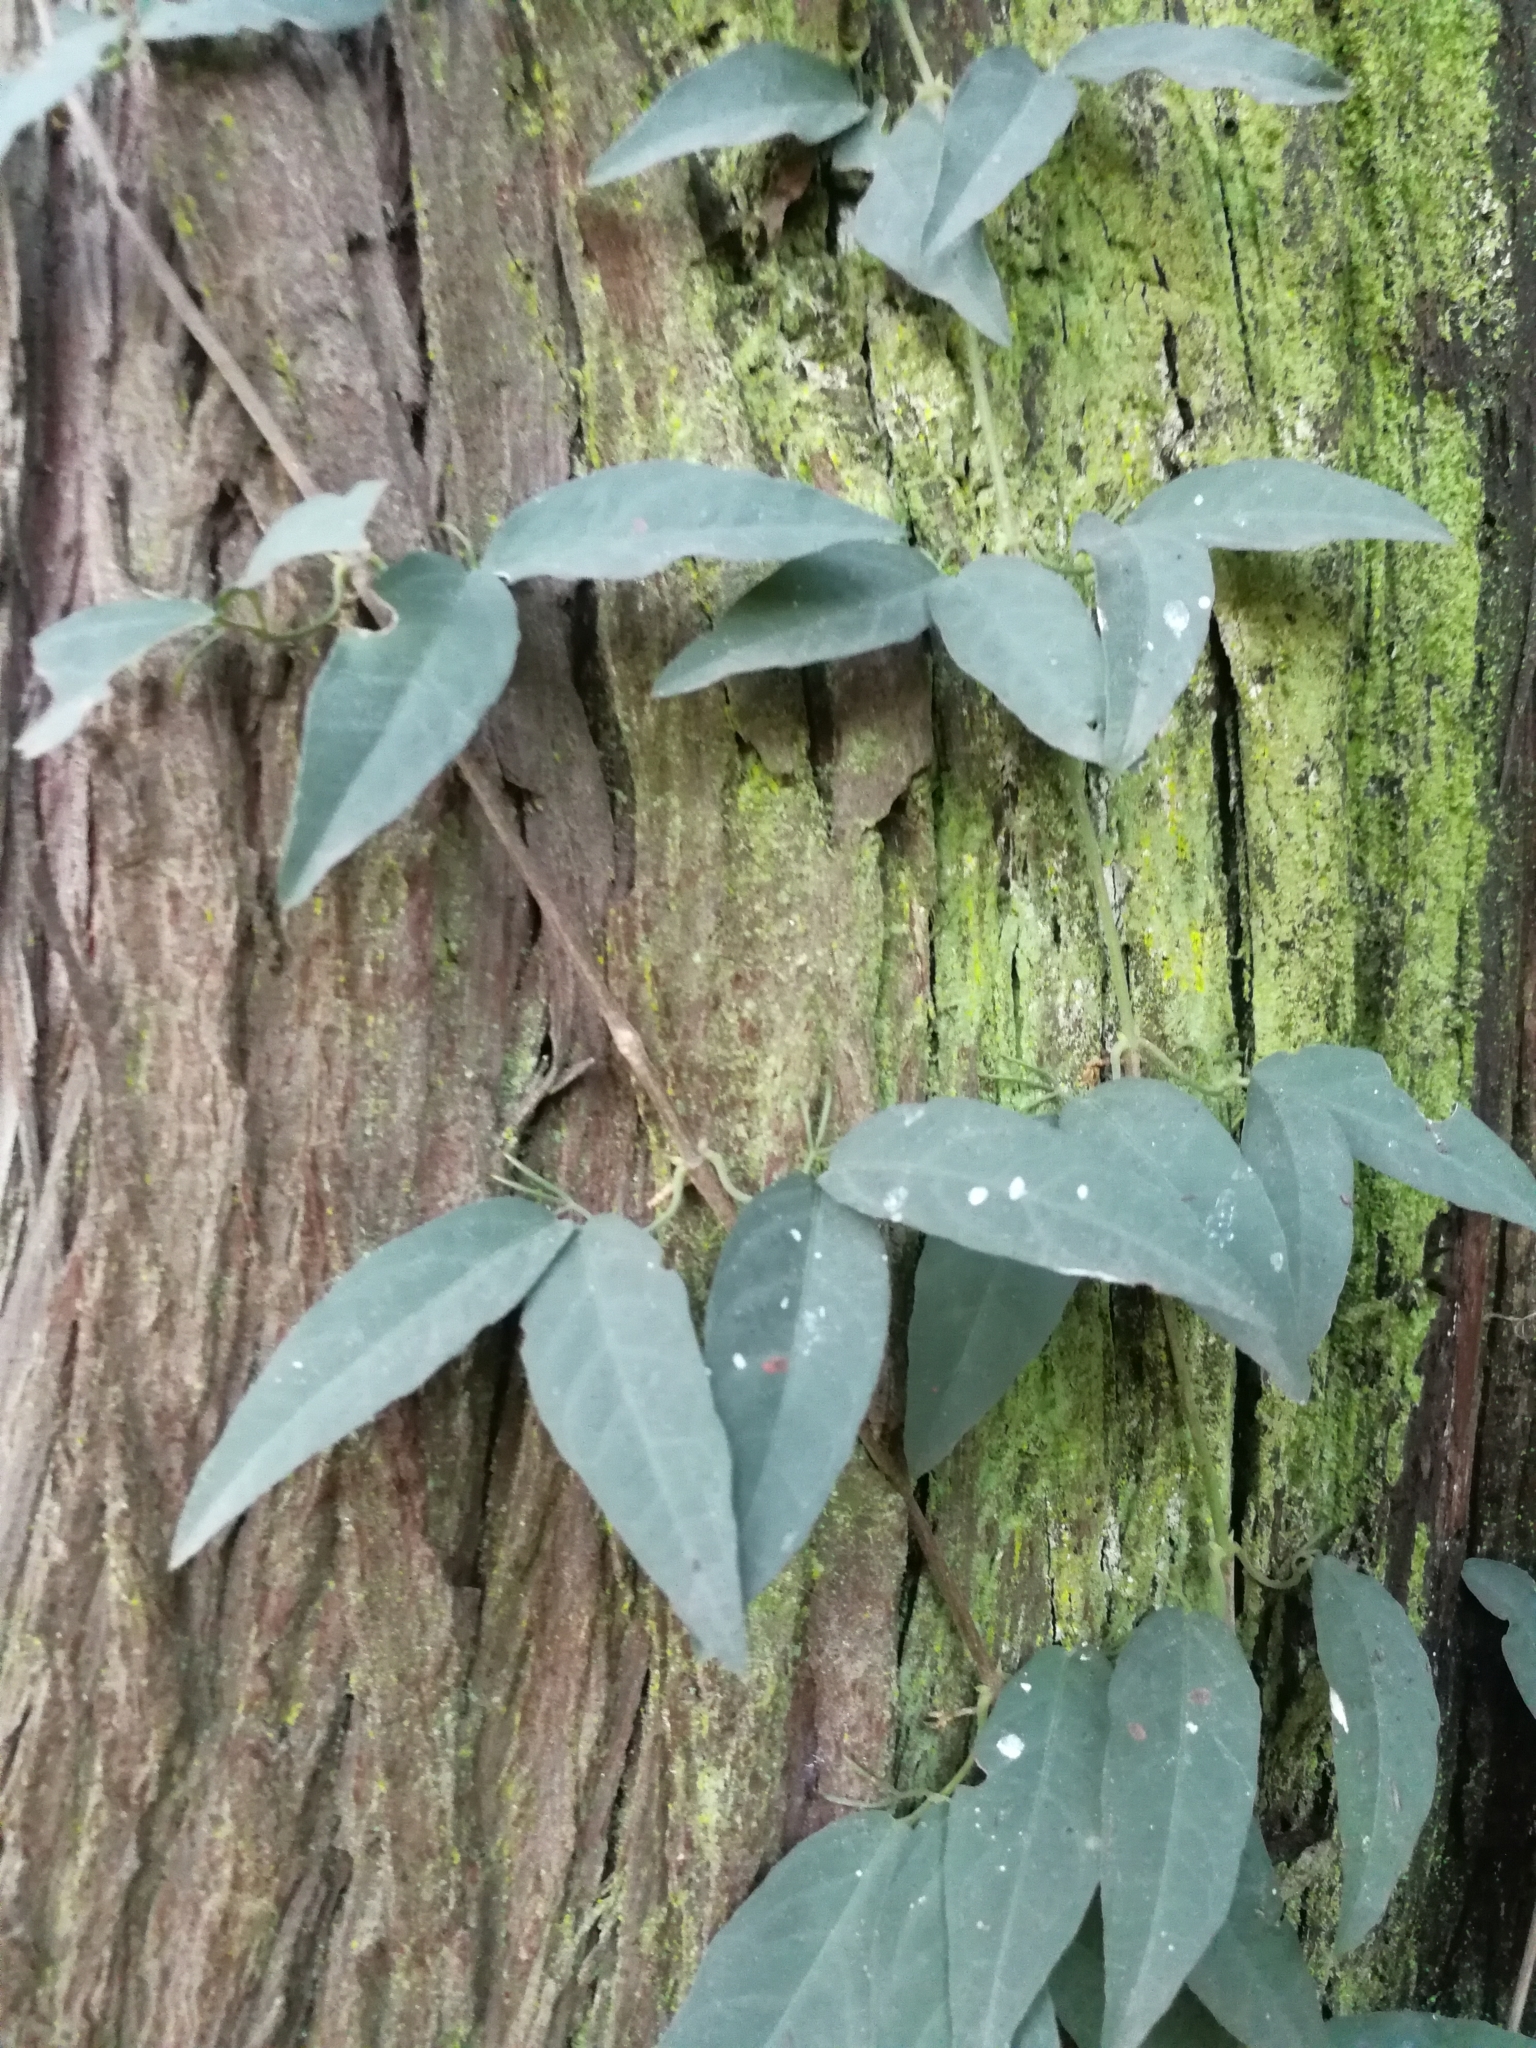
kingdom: Plantae
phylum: Tracheophyta
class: Magnoliopsida
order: Lamiales
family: Bignoniaceae
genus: Dolichandra
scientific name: Dolichandra unguis-cati
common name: Catclaw vine
